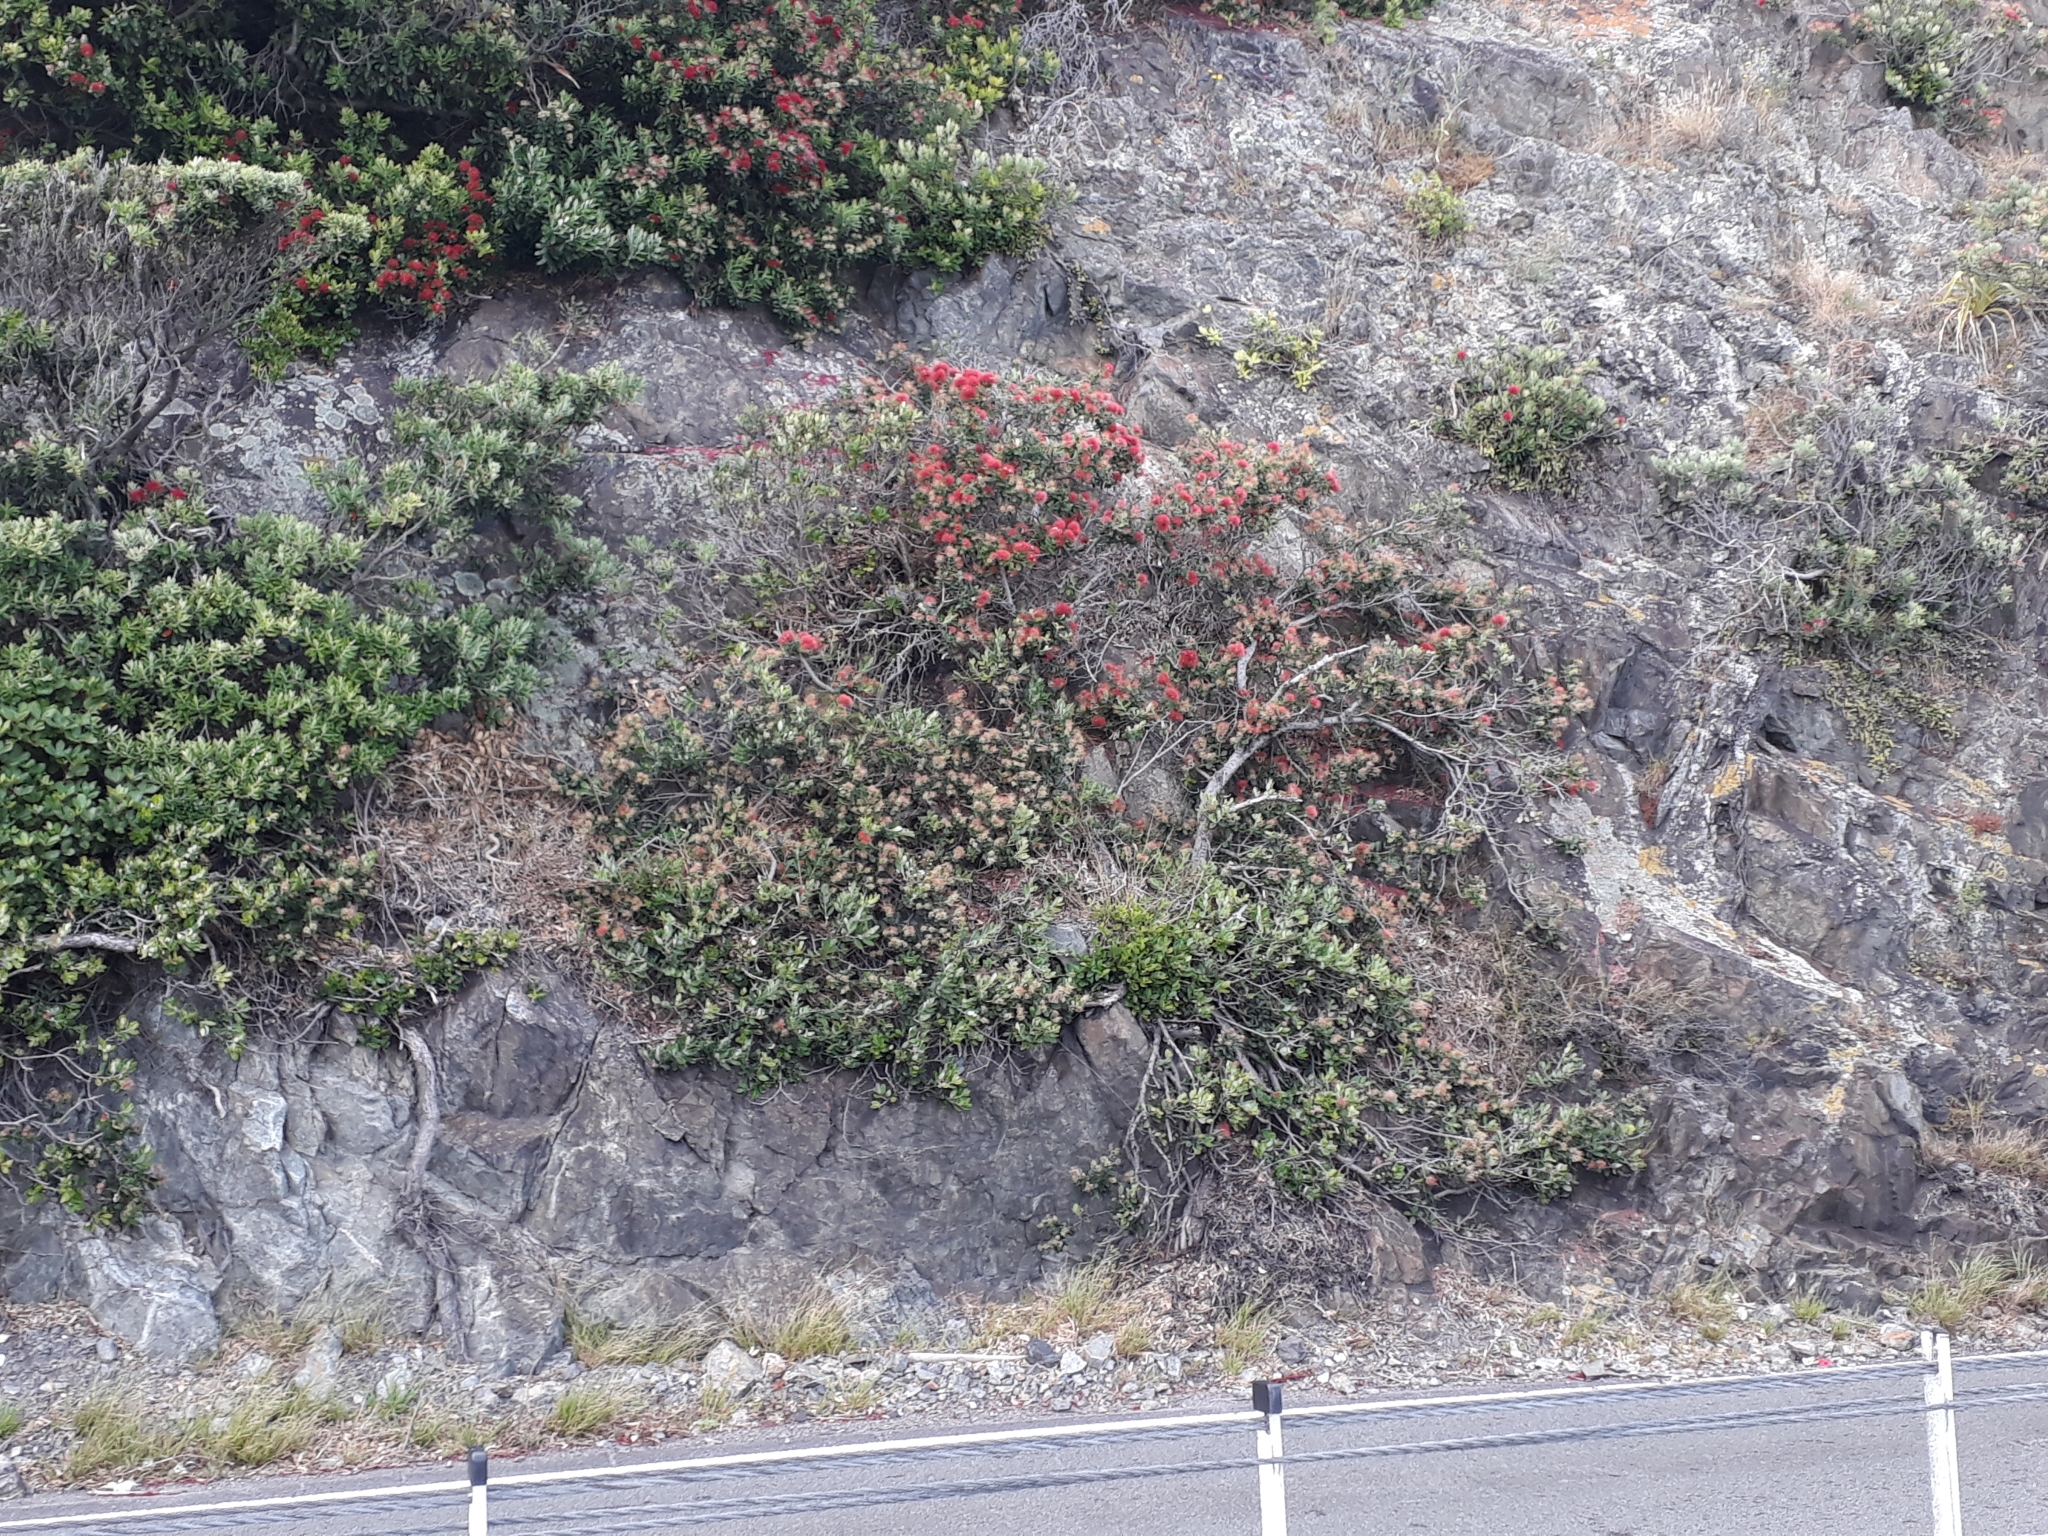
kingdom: Plantae
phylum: Tracheophyta
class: Magnoliopsida
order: Myrtales
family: Myrtaceae
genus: Metrosideros
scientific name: Metrosideros excelsa
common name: New zealand christmastree
